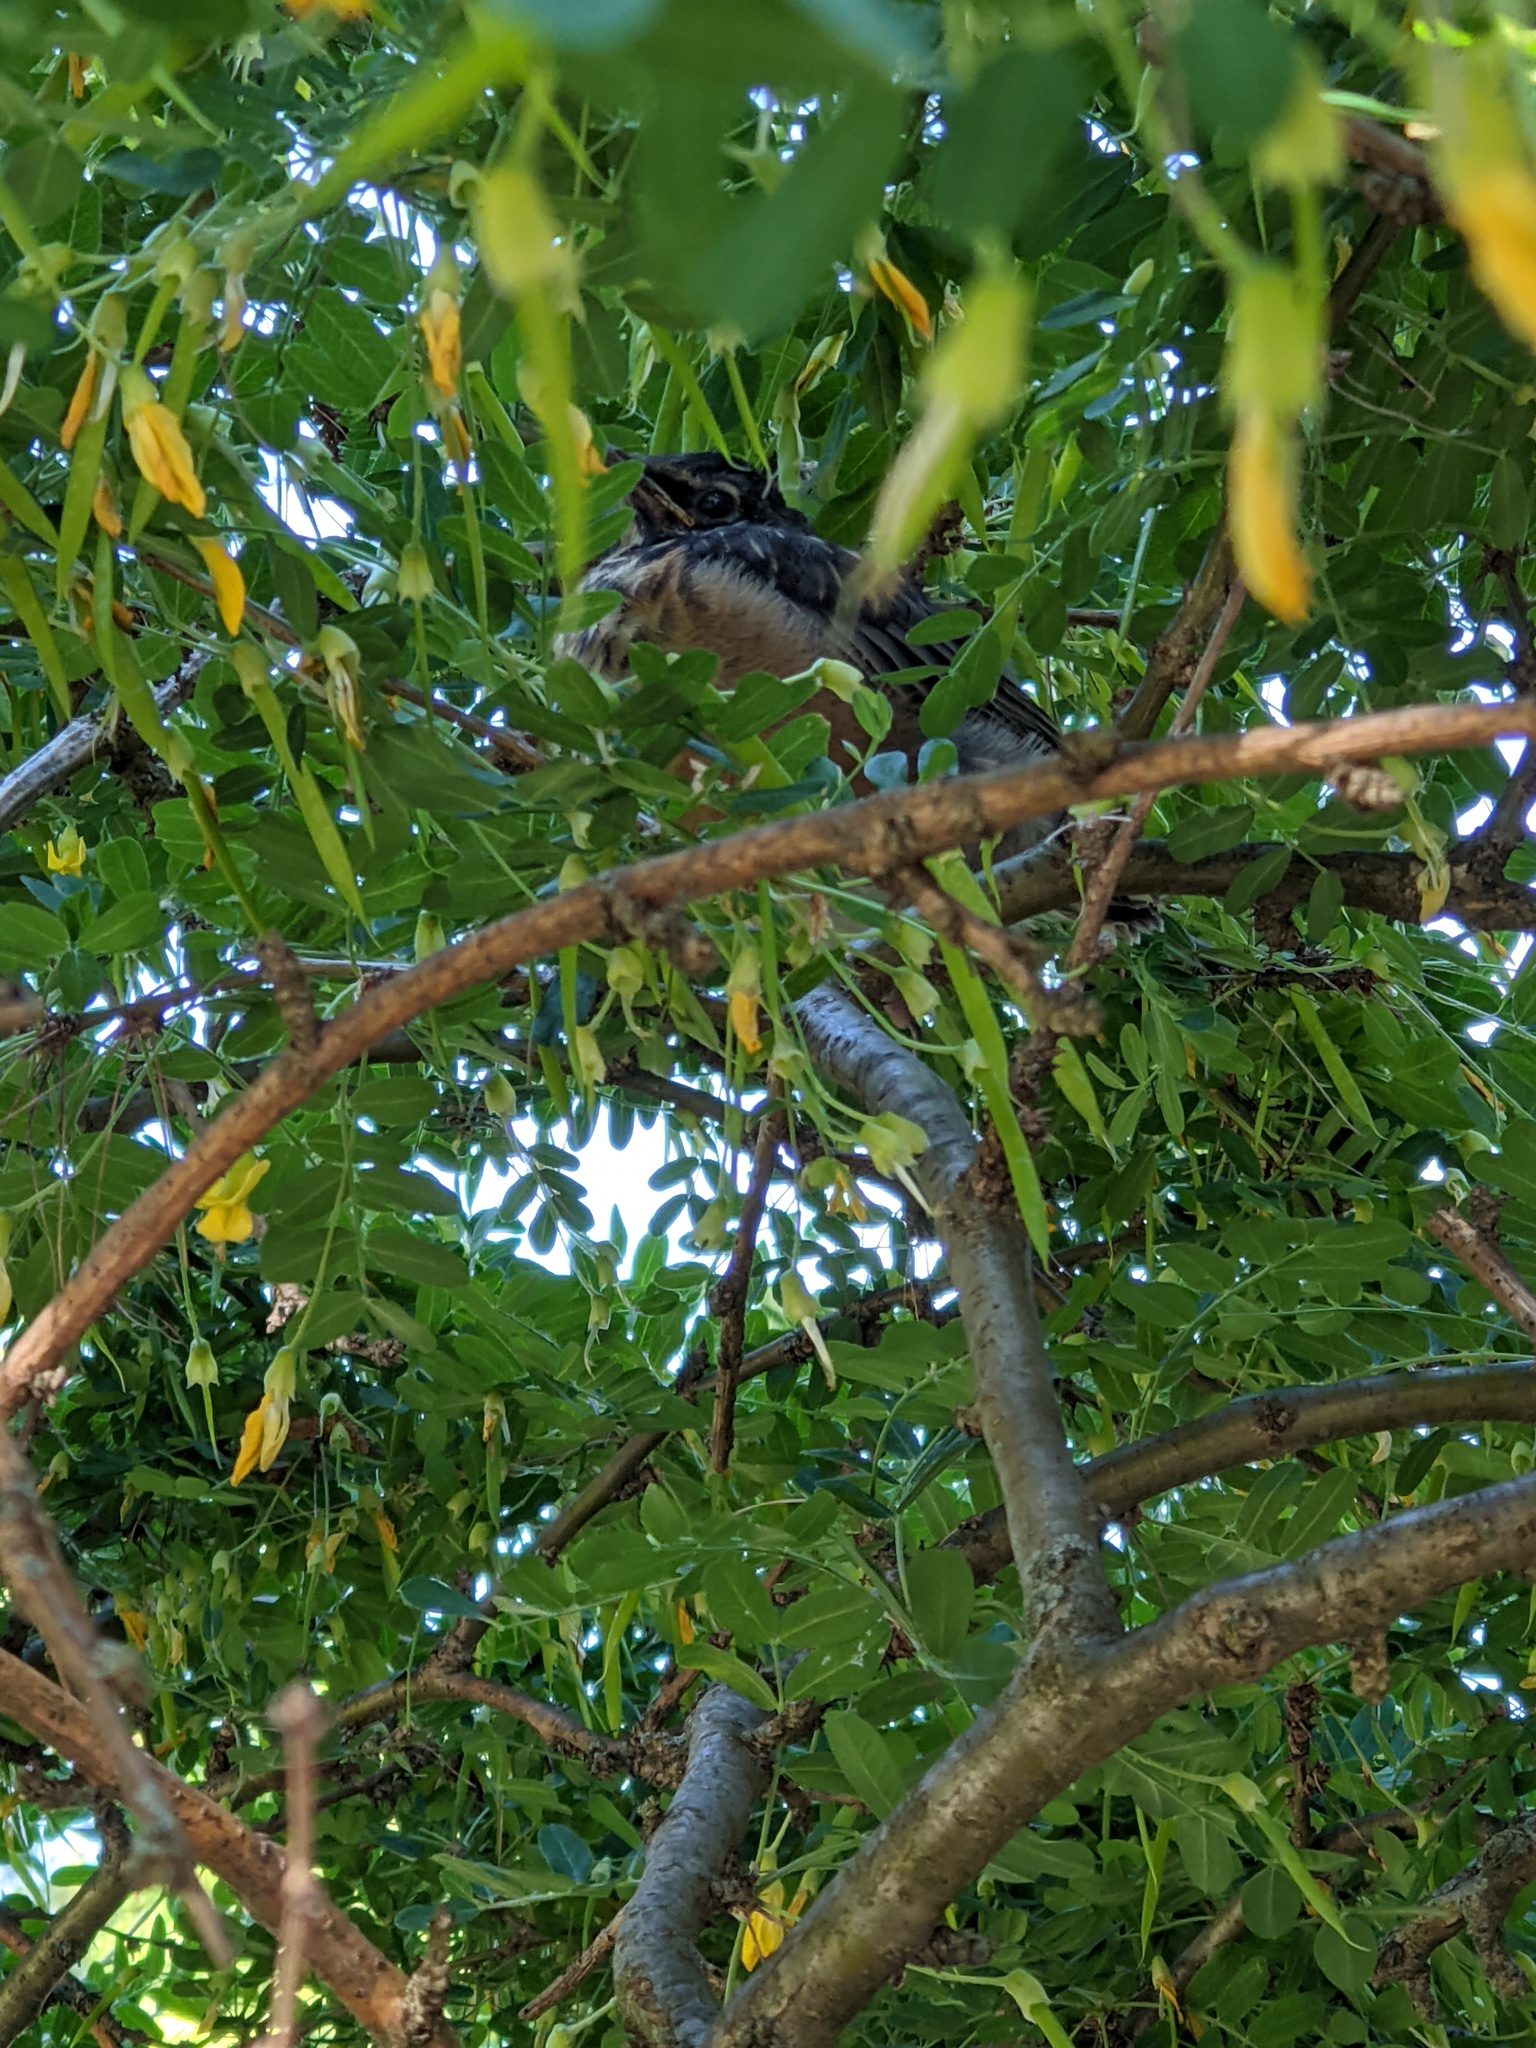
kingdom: Animalia
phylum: Chordata
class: Aves
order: Passeriformes
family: Turdidae
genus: Turdus
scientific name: Turdus migratorius
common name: American robin
